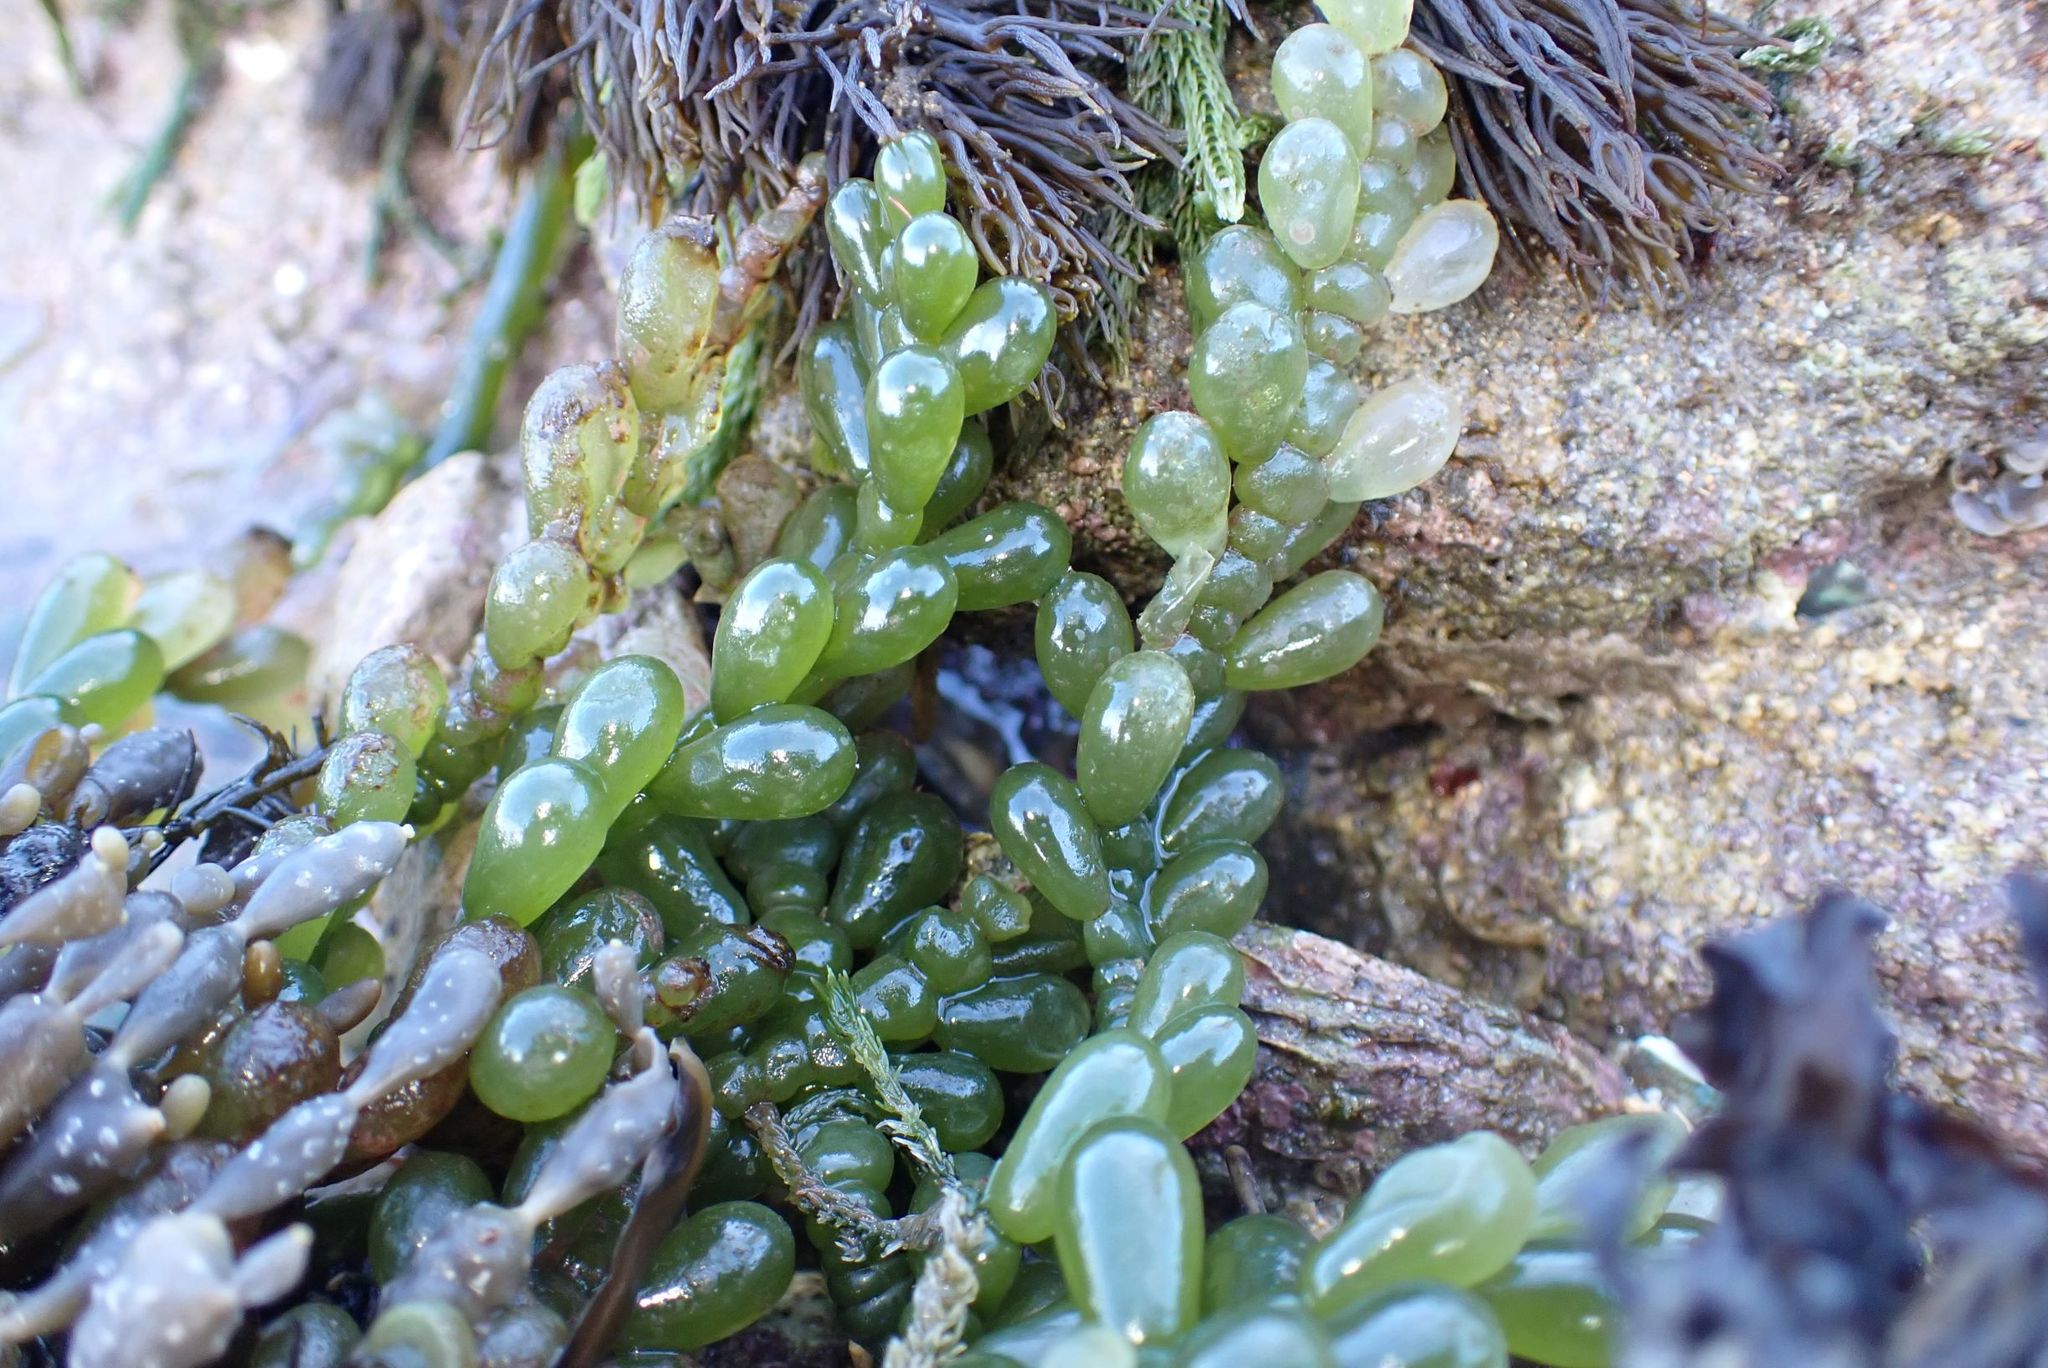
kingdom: Plantae
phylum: Chlorophyta
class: Ulvophyceae
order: Bryopsidales
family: Caulerpaceae
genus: Caulerpa
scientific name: Caulerpa cactoides
